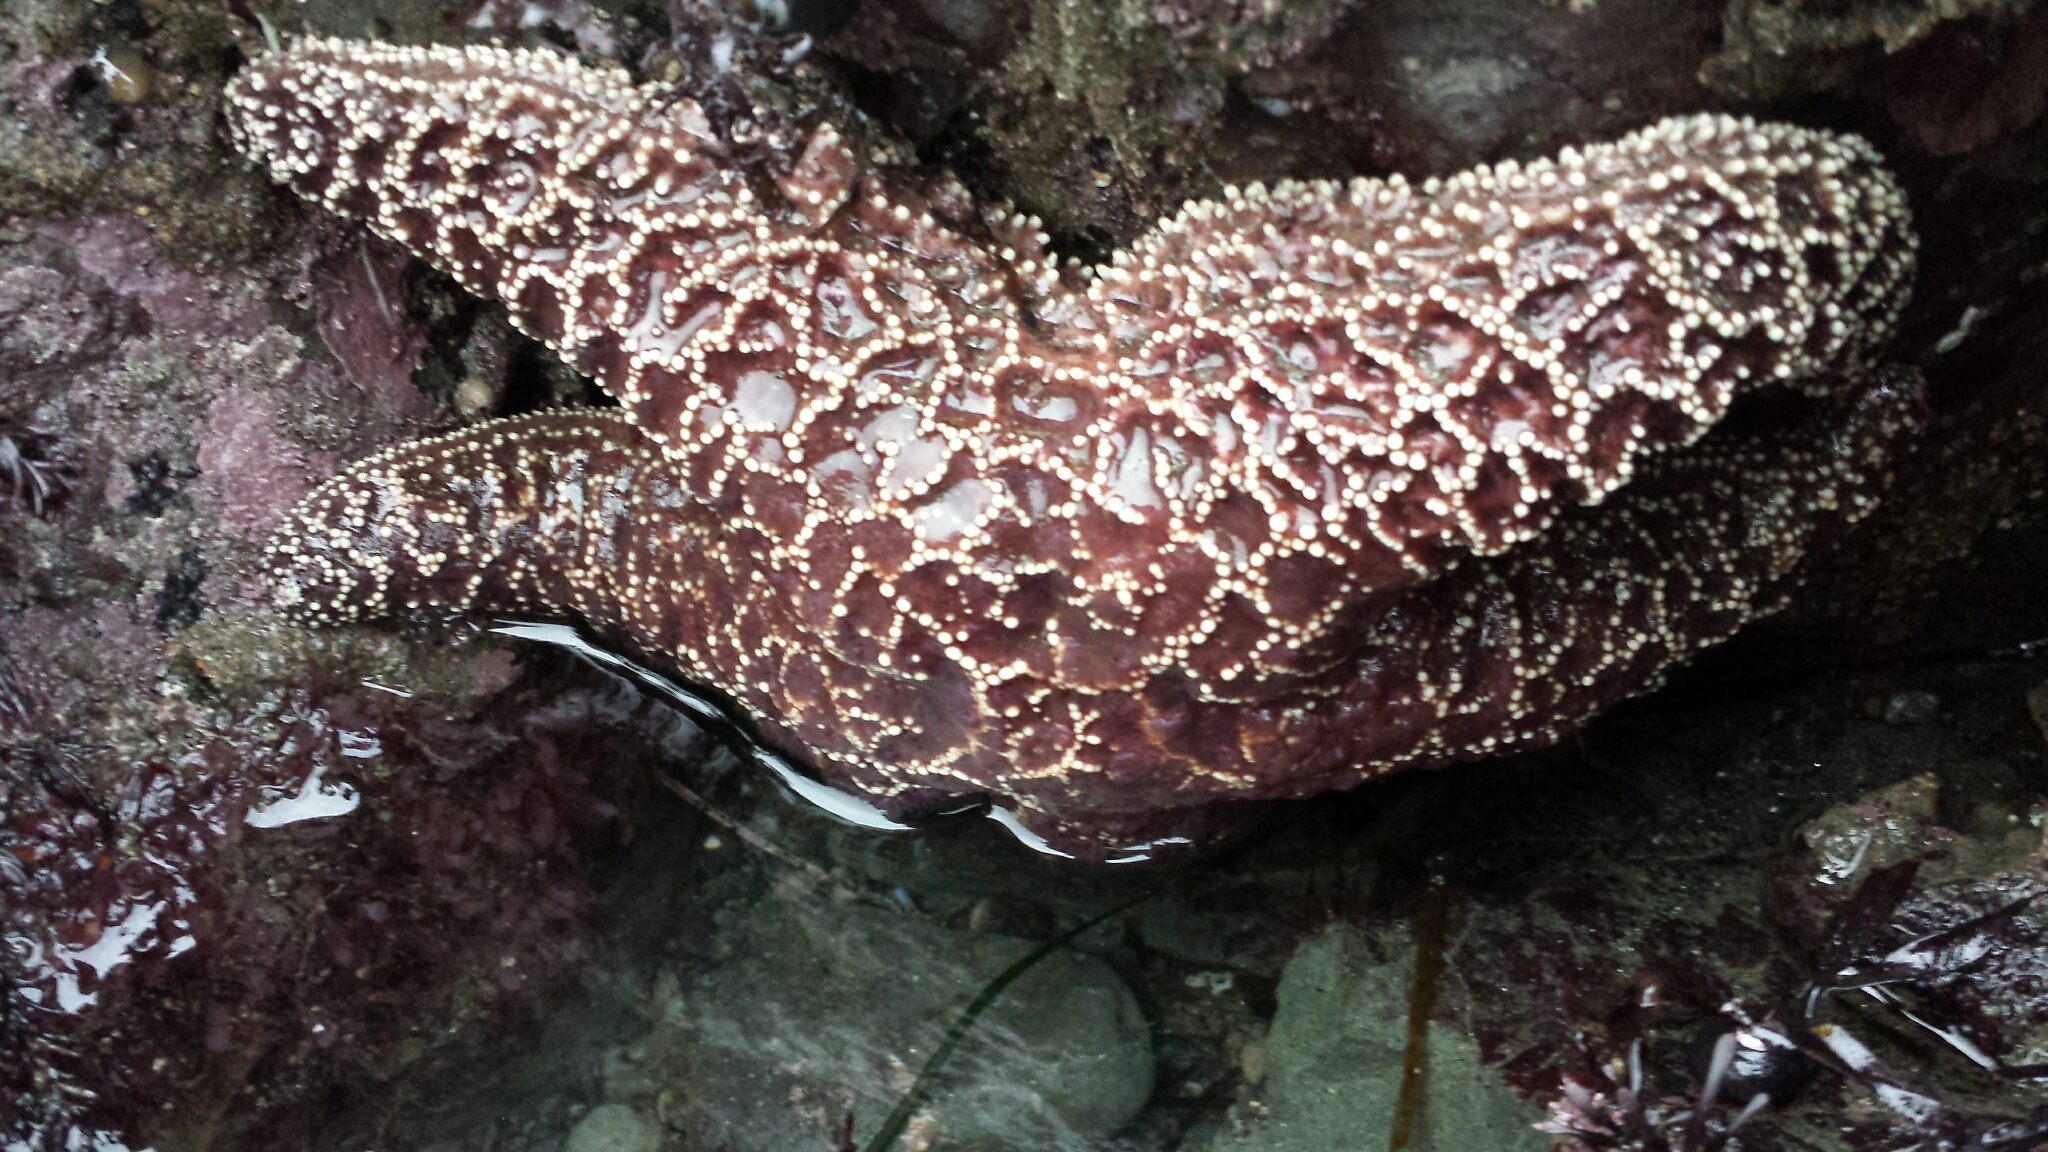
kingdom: Animalia
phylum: Echinodermata
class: Asteroidea
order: Forcipulatida
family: Asteriidae
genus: Pisaster
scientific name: Pisaster ochraceus
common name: Ochre stars
